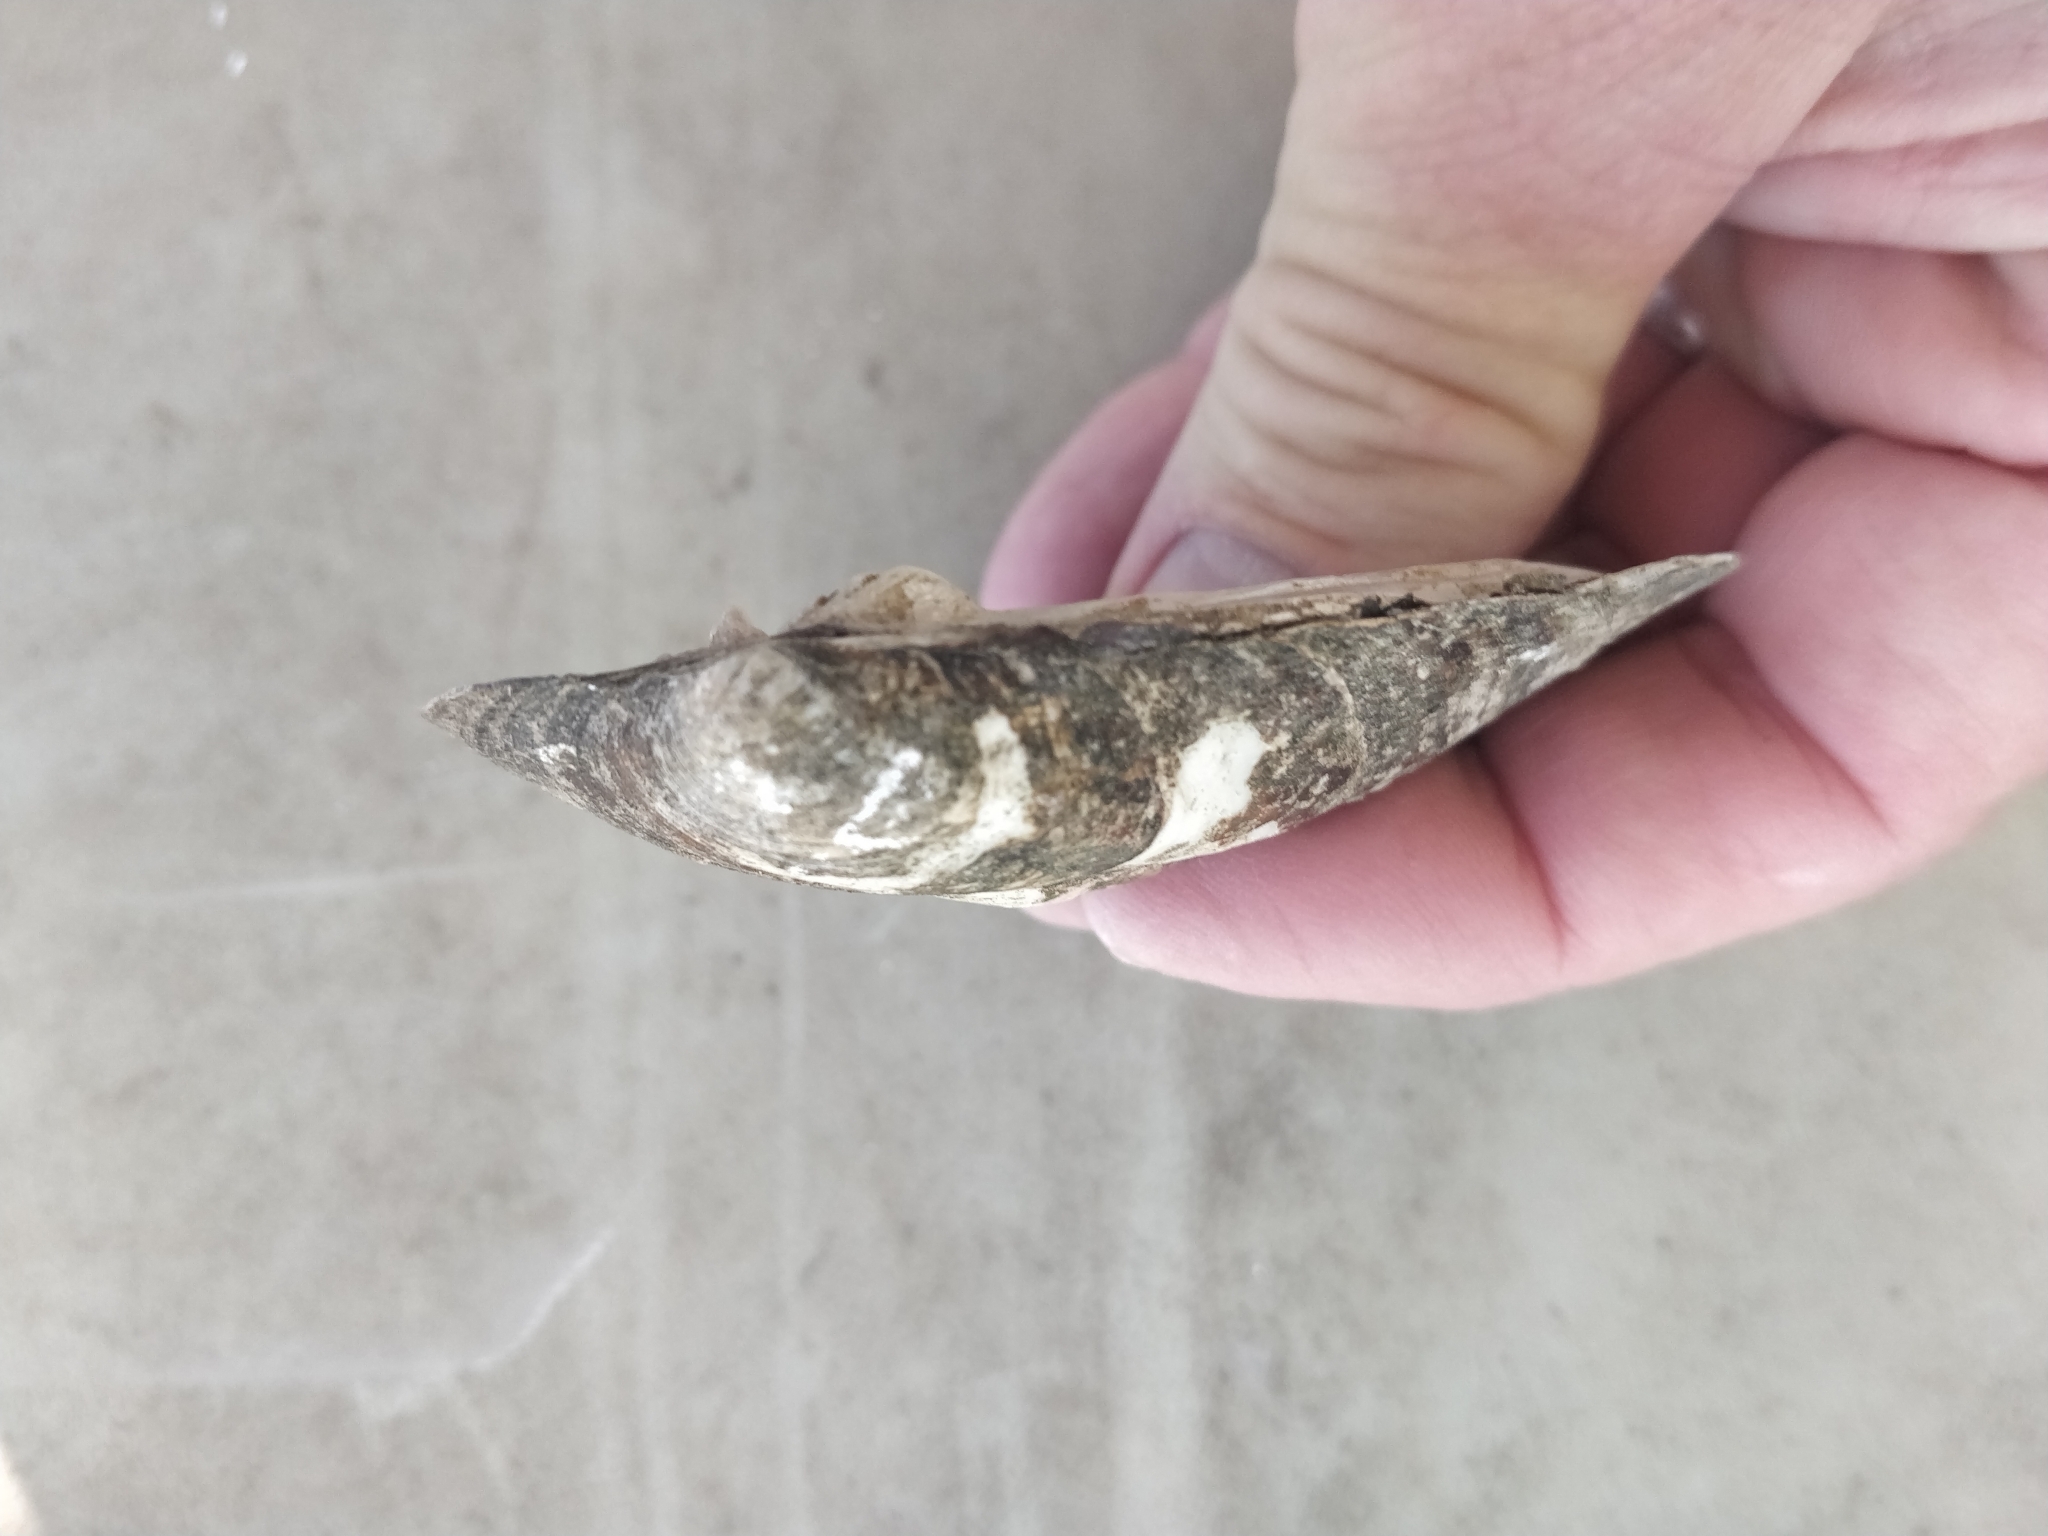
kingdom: Animalia
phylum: Mollusca
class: Bivalvia
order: Unionida
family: Unionidae
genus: Amblema
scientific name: Amblema plicata
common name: Threeridge
